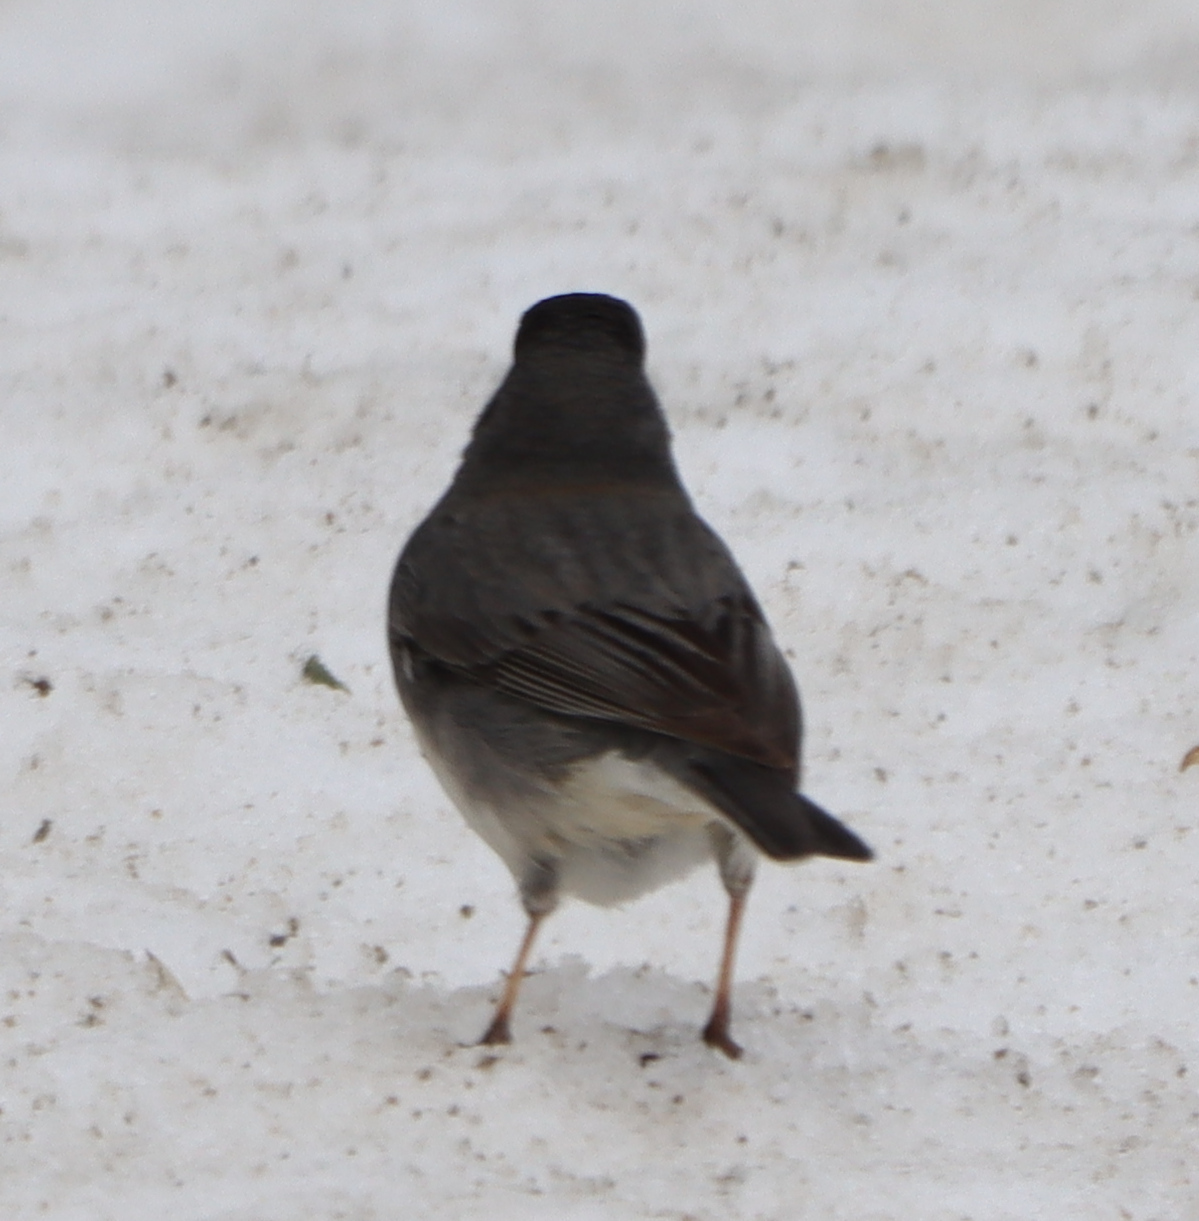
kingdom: Animalia
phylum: Chordata
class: Aves
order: Passeriformes
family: Passerellidae
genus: Junco
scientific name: Junco hyemalis
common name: Dark-eyed junco
